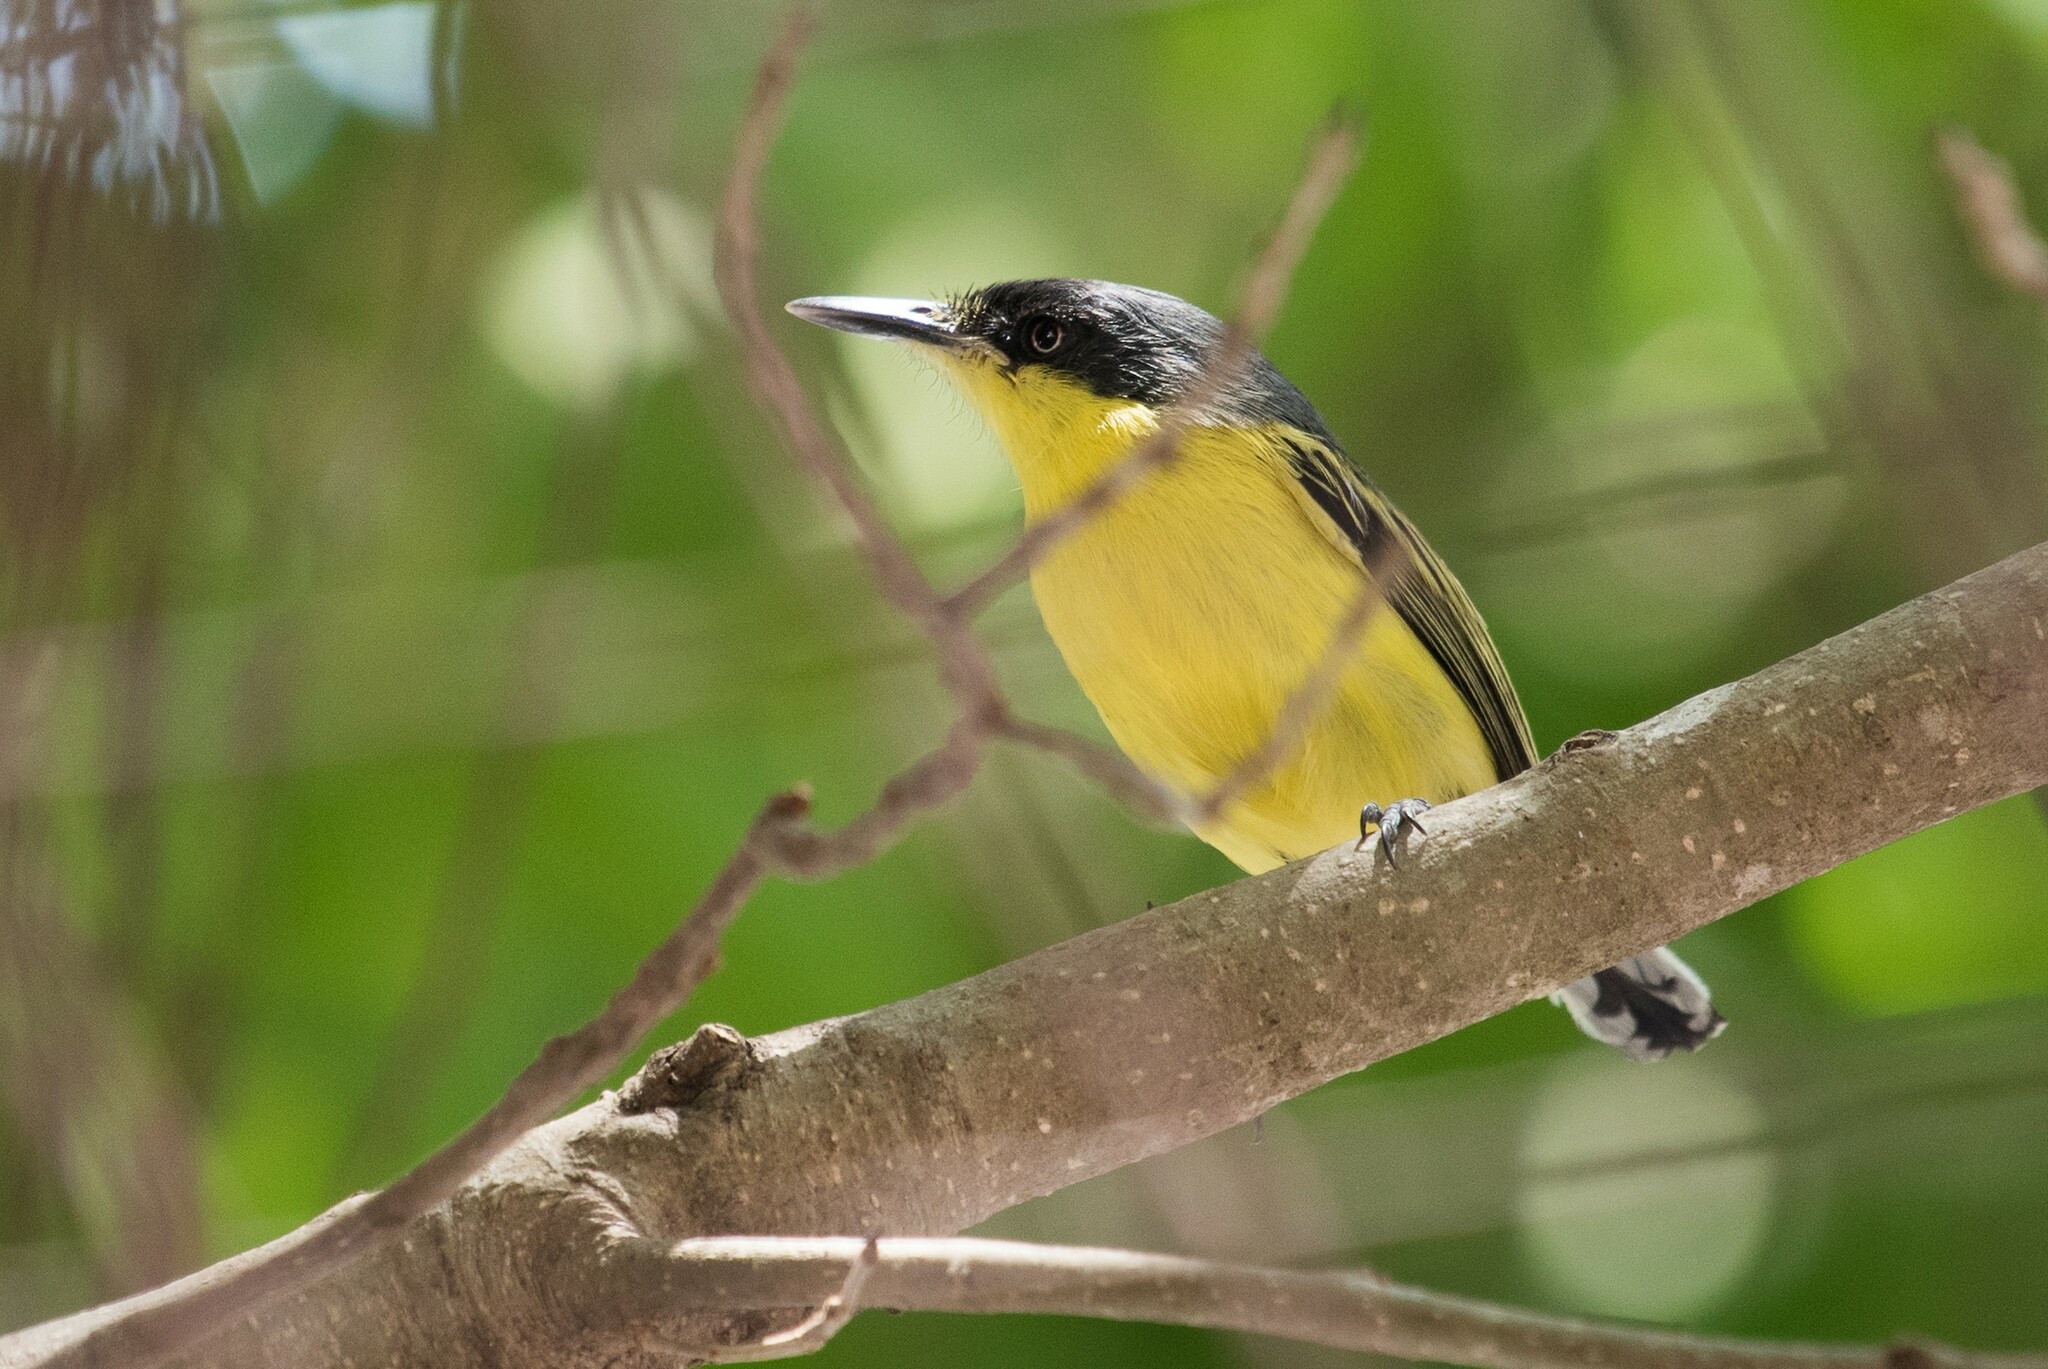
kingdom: Animalia
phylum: Chordata
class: Aves
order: Passeriformes
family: Tyrannidae
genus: Todirostrum
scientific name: Todirostrum cinereum
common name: Common tody-flycatcher
